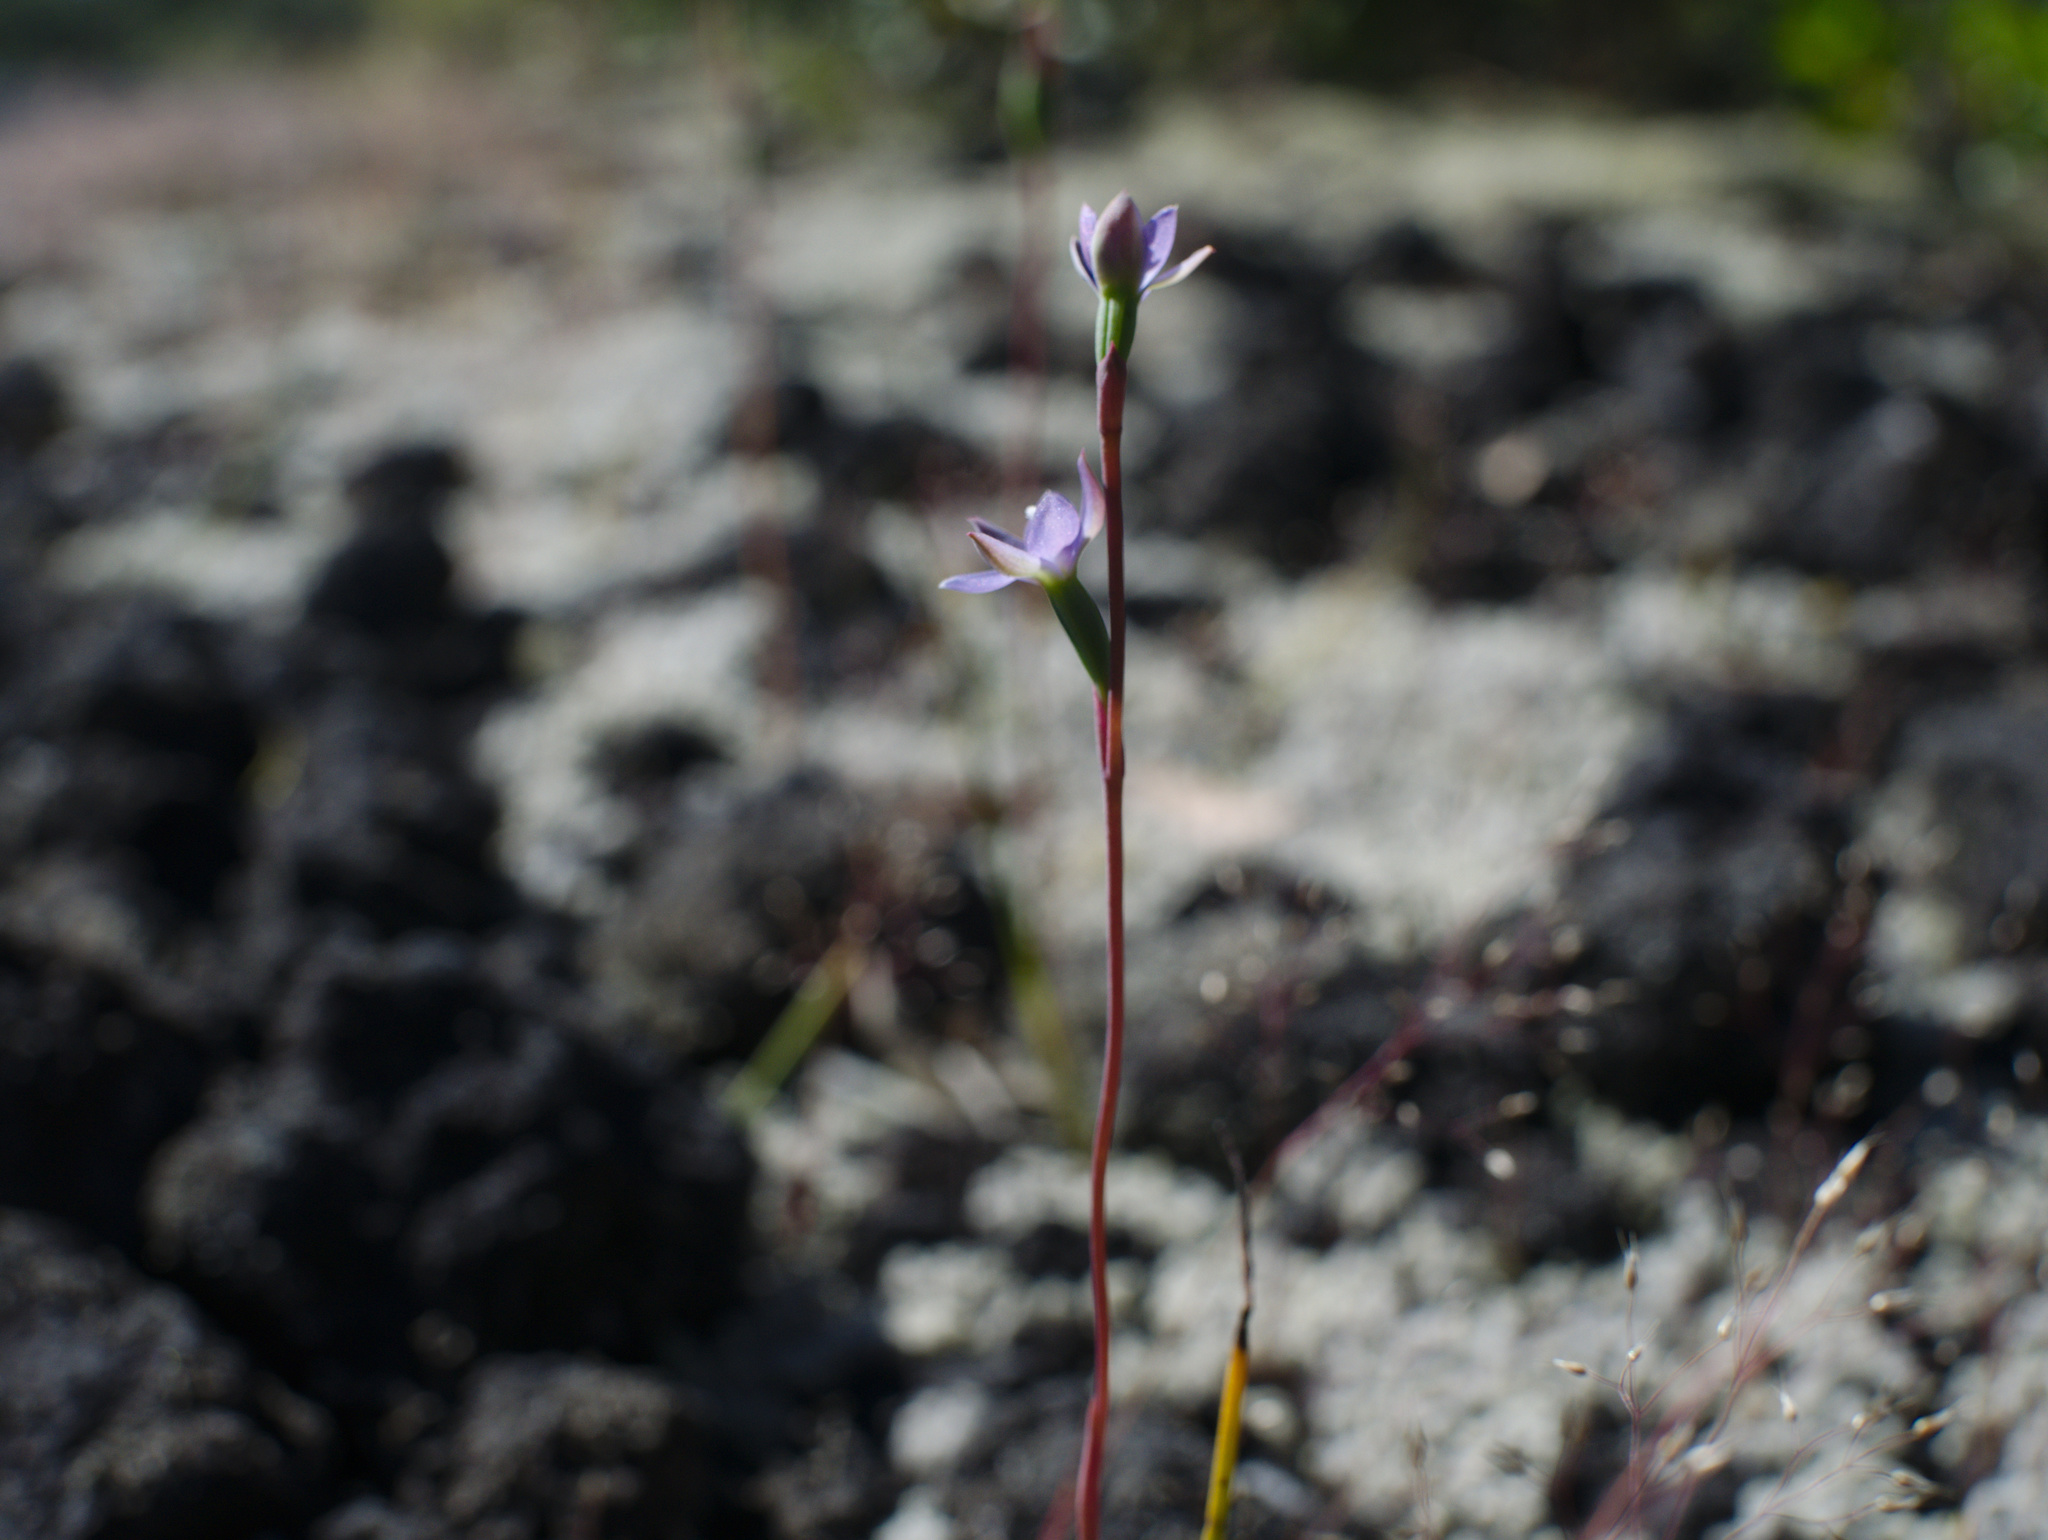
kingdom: Plantae
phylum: Tracheophyta
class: Liliopsida
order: Asparagales
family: Orchidaceae
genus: Thelymitra
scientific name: Thelymitra pauciflora
